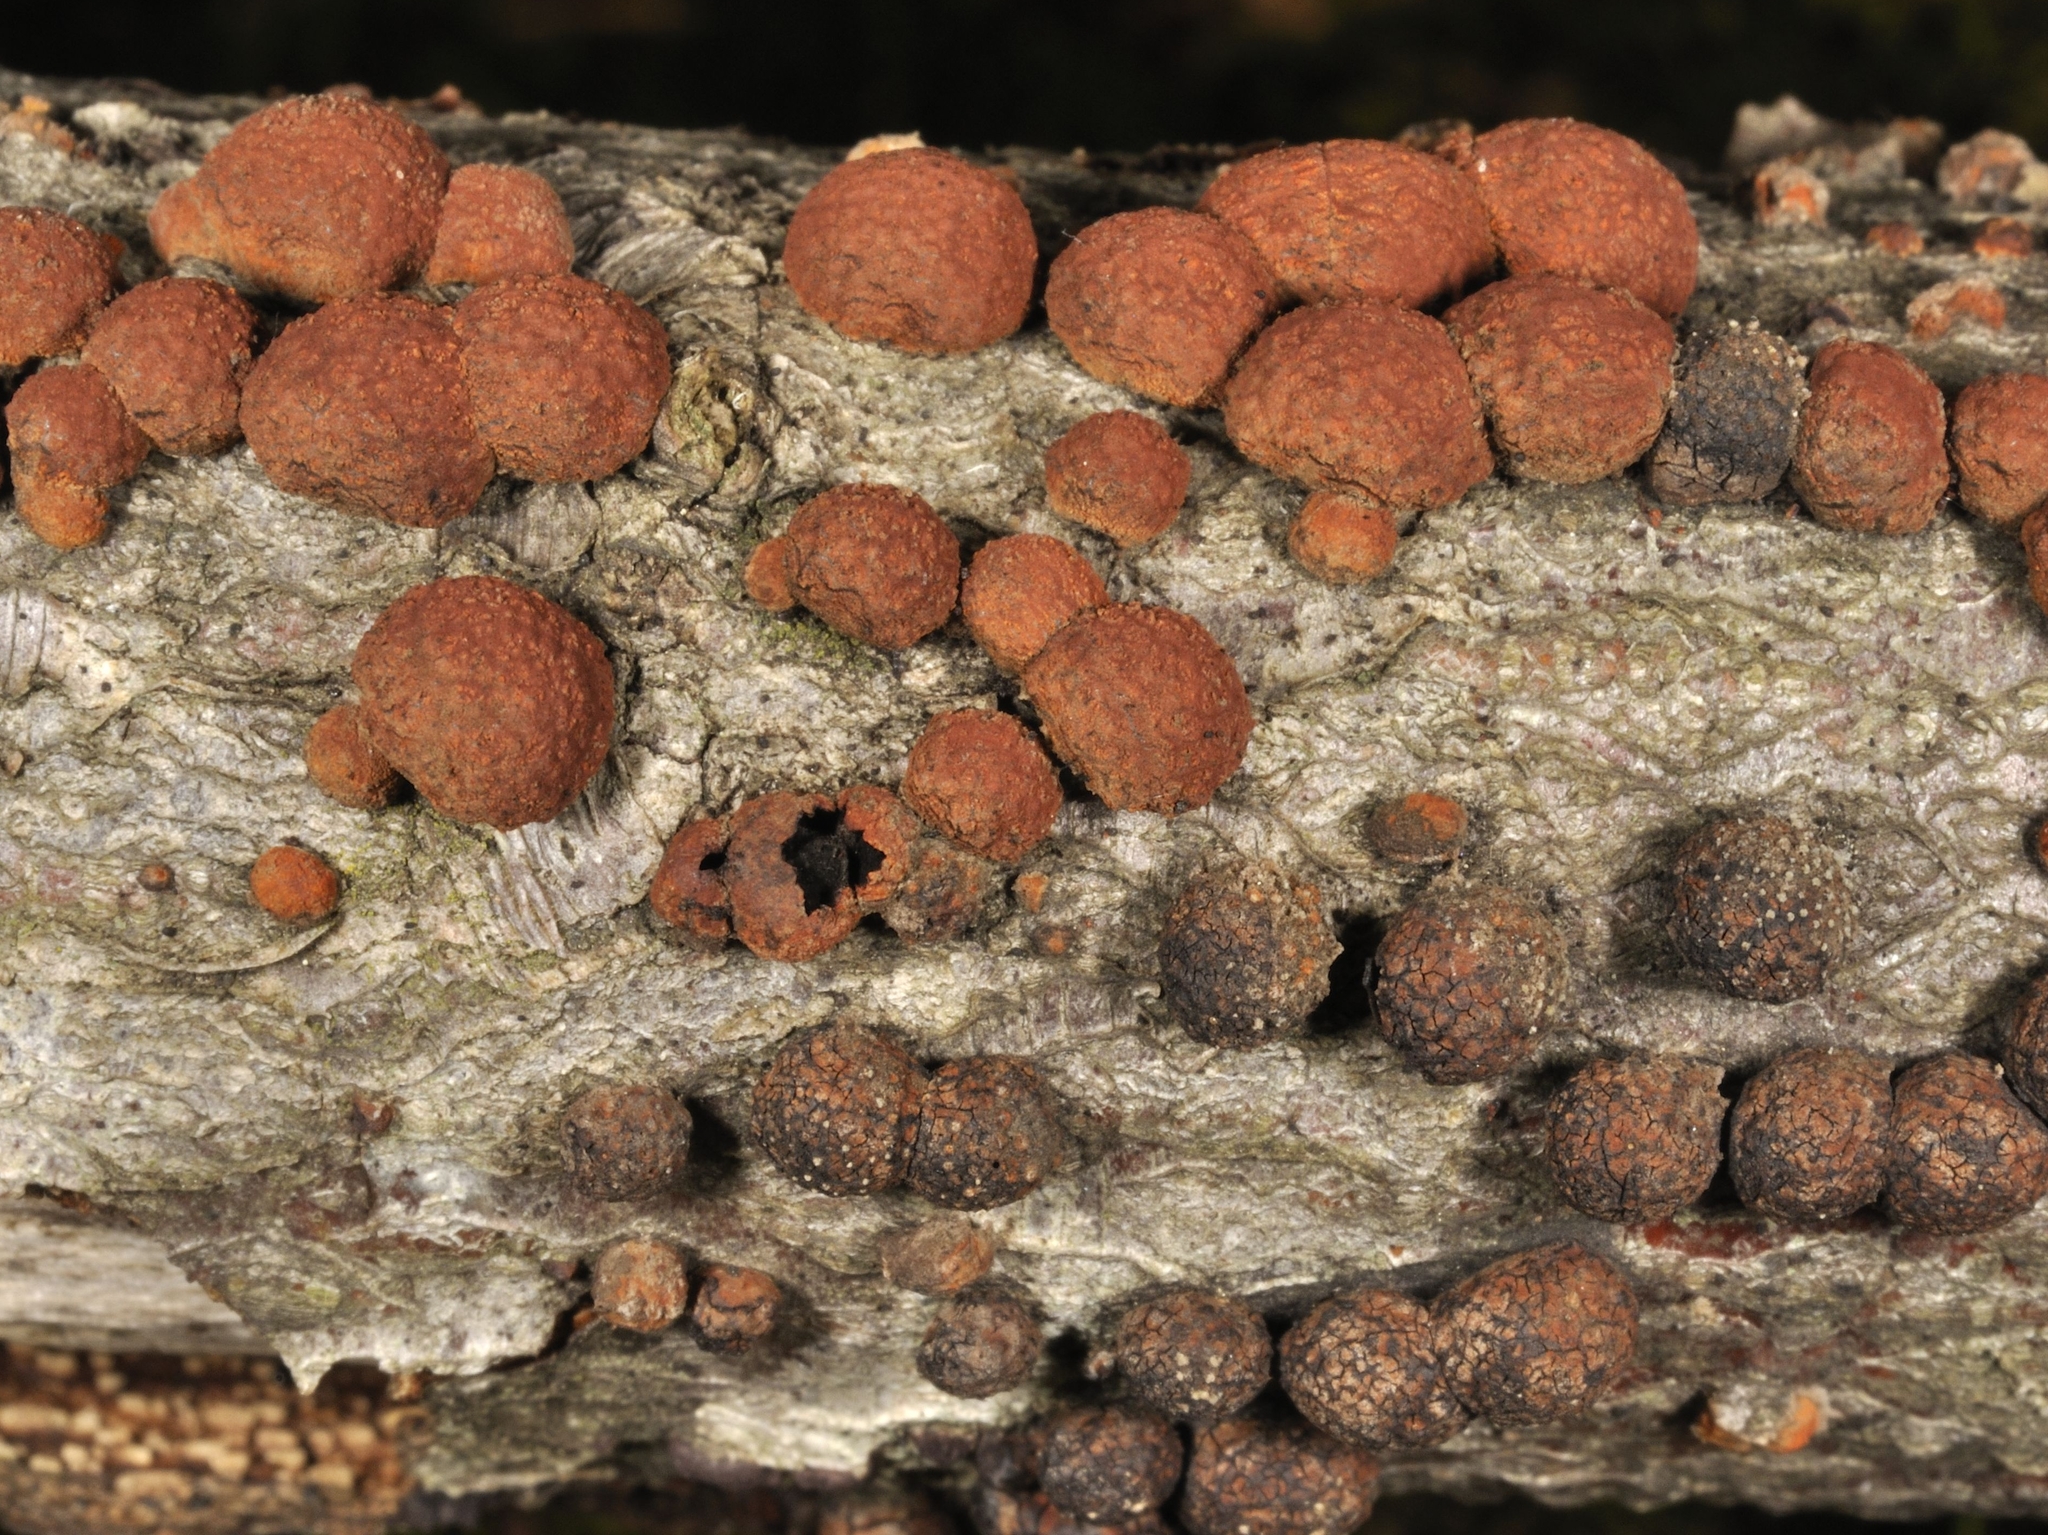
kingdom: Fungi
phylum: Ascomycota
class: Sordariomycetes
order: Xylariales
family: Hypoxylaceae
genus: Hypoxylon
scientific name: Hypoxylon fragiforme
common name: Beech woodwart
